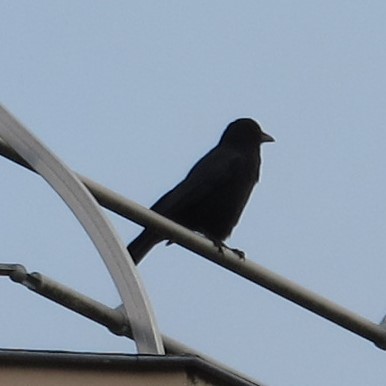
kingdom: Animalia
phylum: Chordata
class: Aves
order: Passeriformes
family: Corvidae
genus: Corvus
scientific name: Corvus corone
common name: Carrion crow
